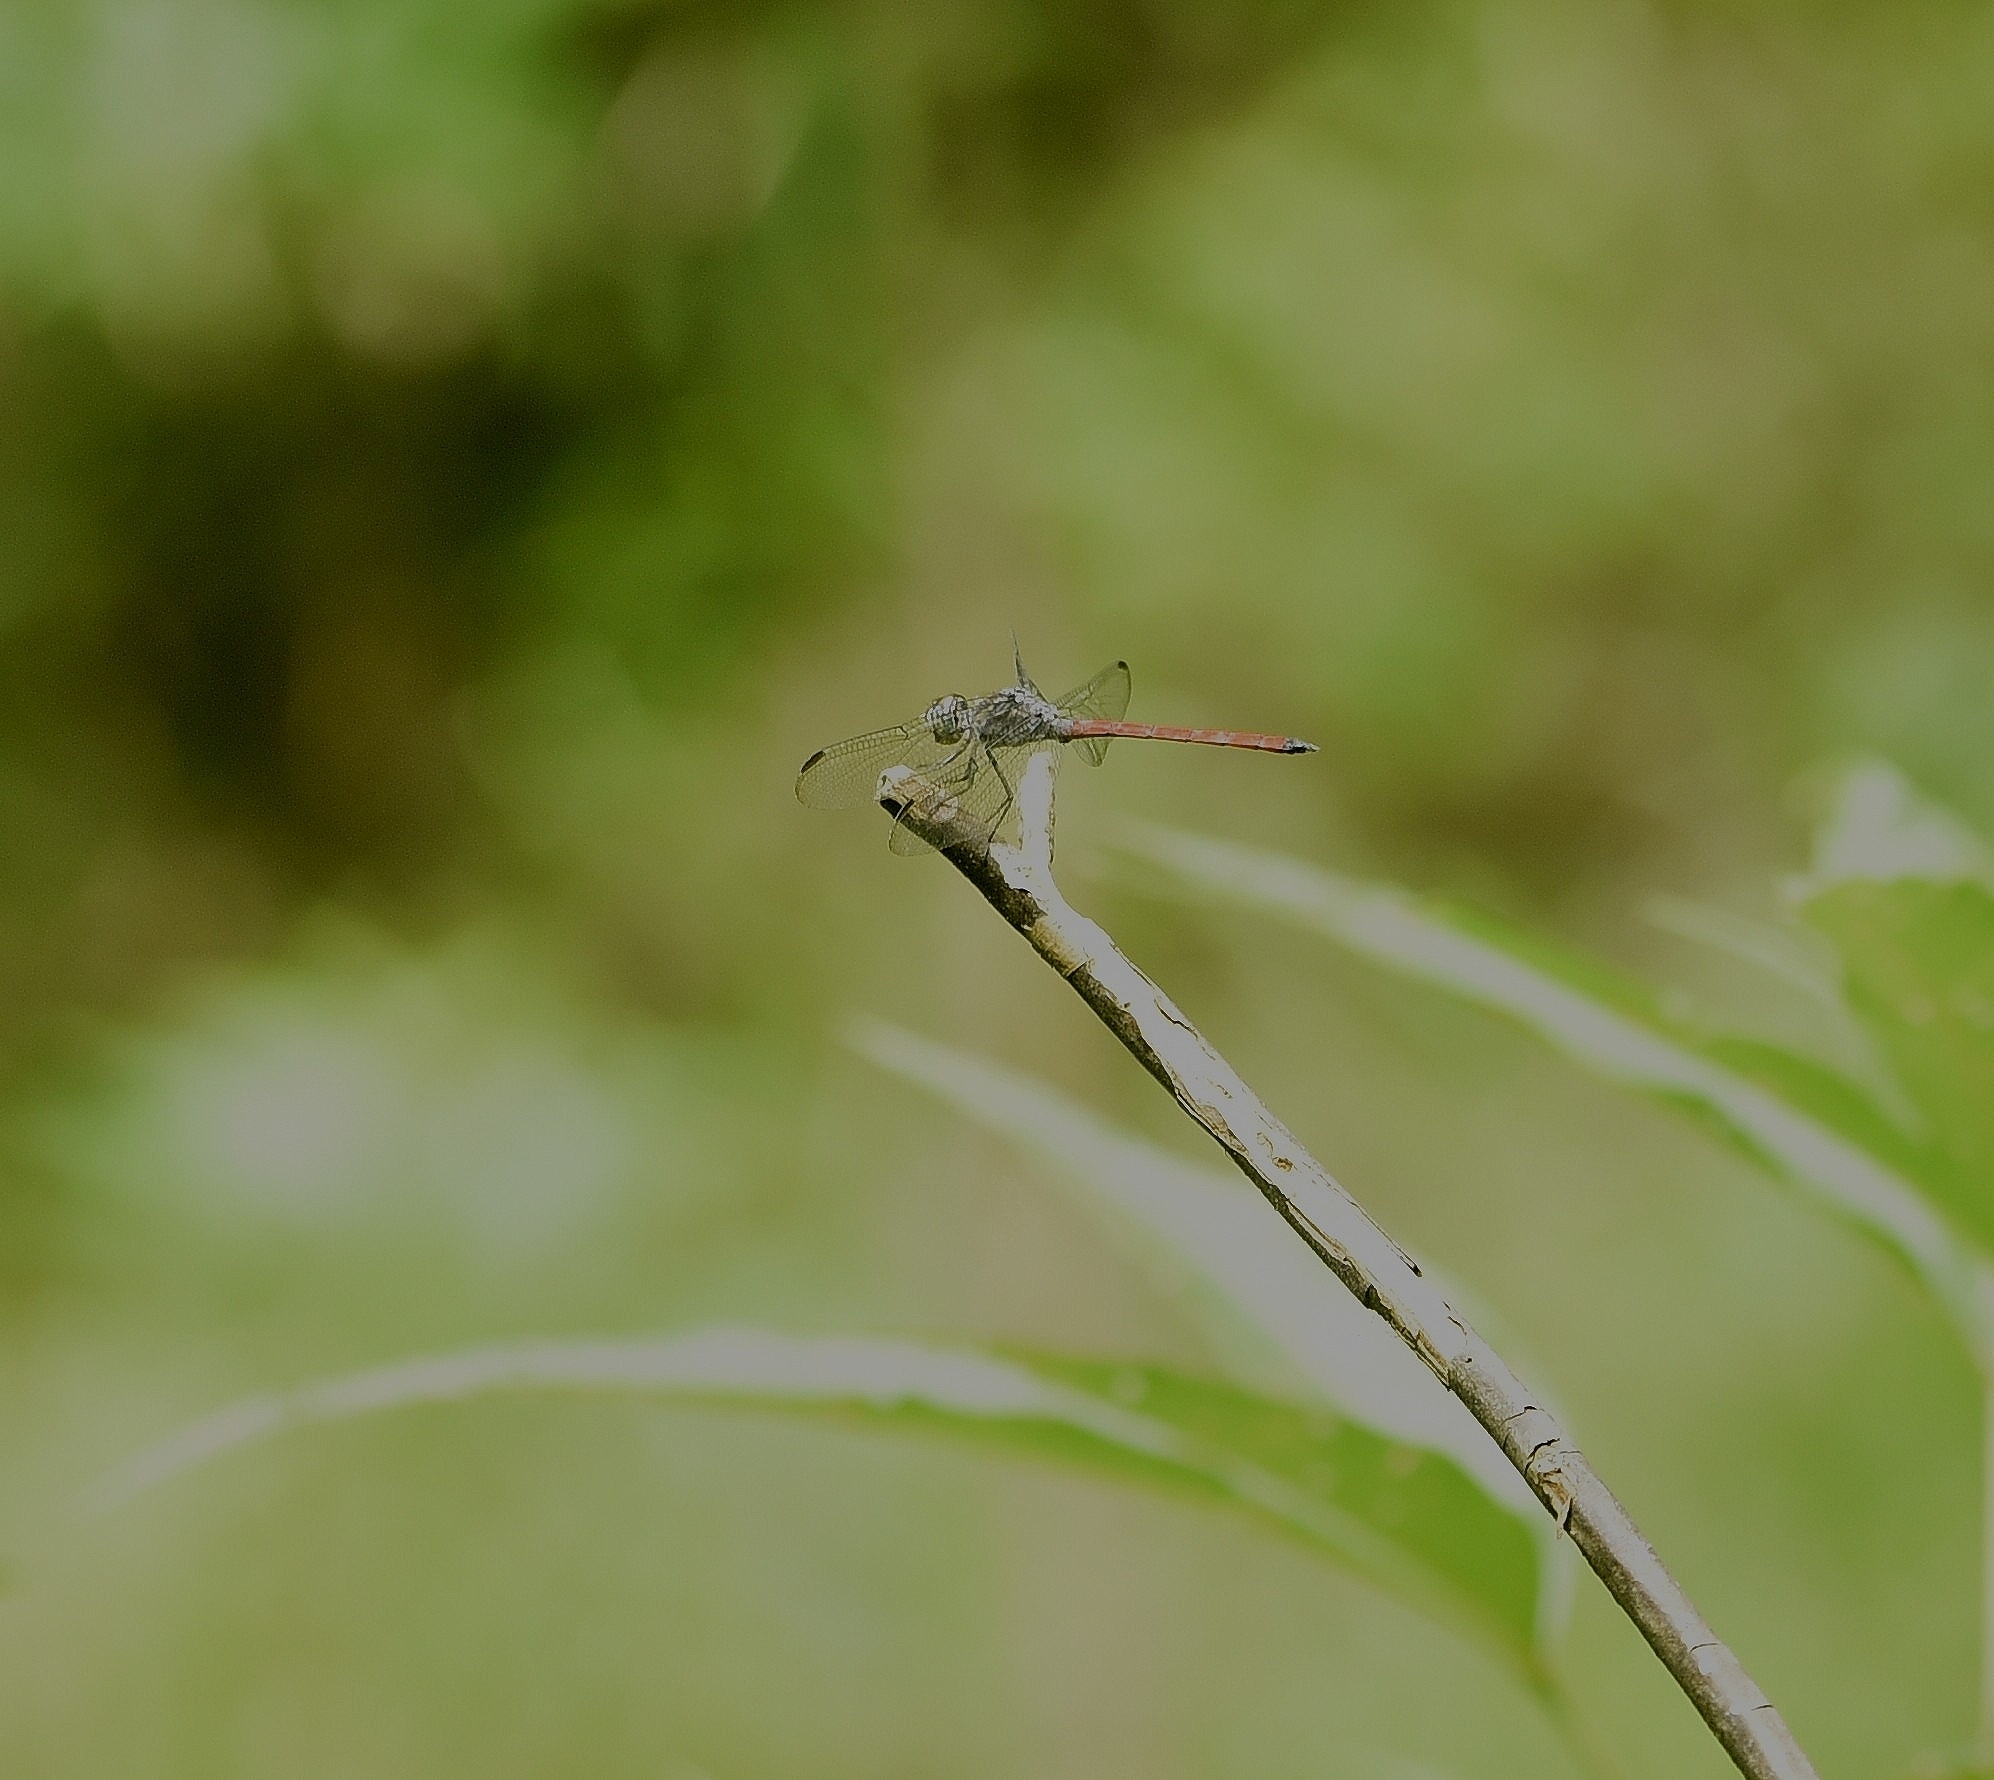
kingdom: Animalia
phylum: Arthropoda
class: Insecta
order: Odonata
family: Libellulidae
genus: Lathrecista
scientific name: Lathrecista asiatica
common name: Scarlet grenadier
